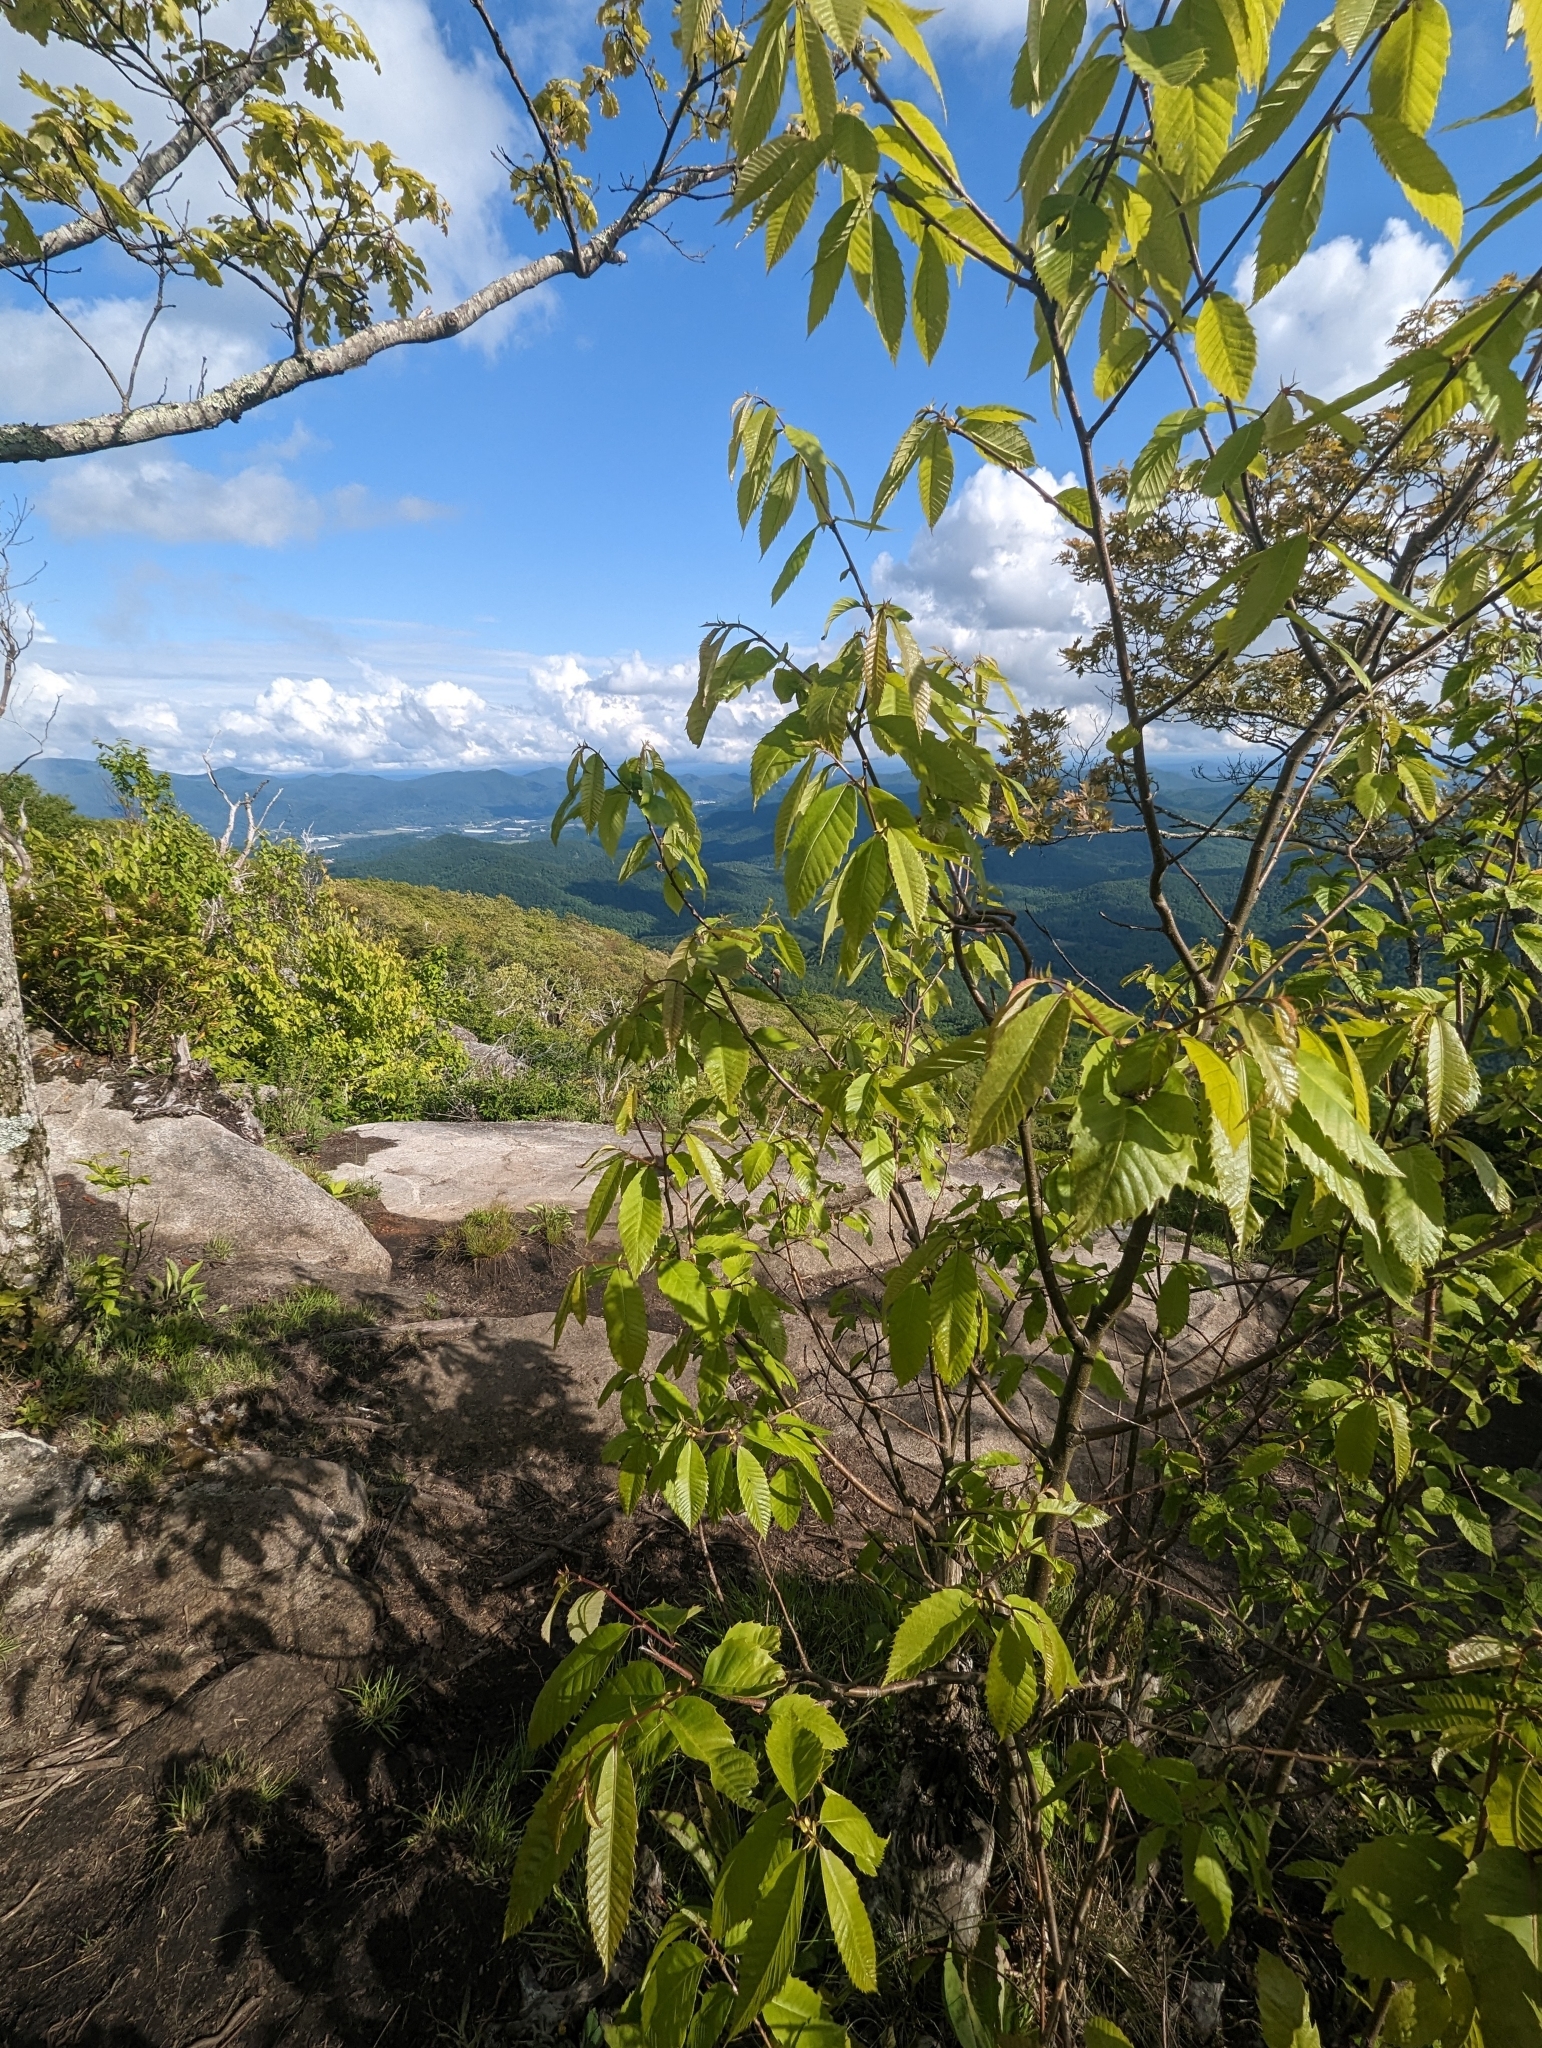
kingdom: Plantae
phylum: Tracheophyta
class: Magnoliopsida
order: Fagales
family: Fagaceae
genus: Castanea
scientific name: Castanea dentata
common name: American chestnut
